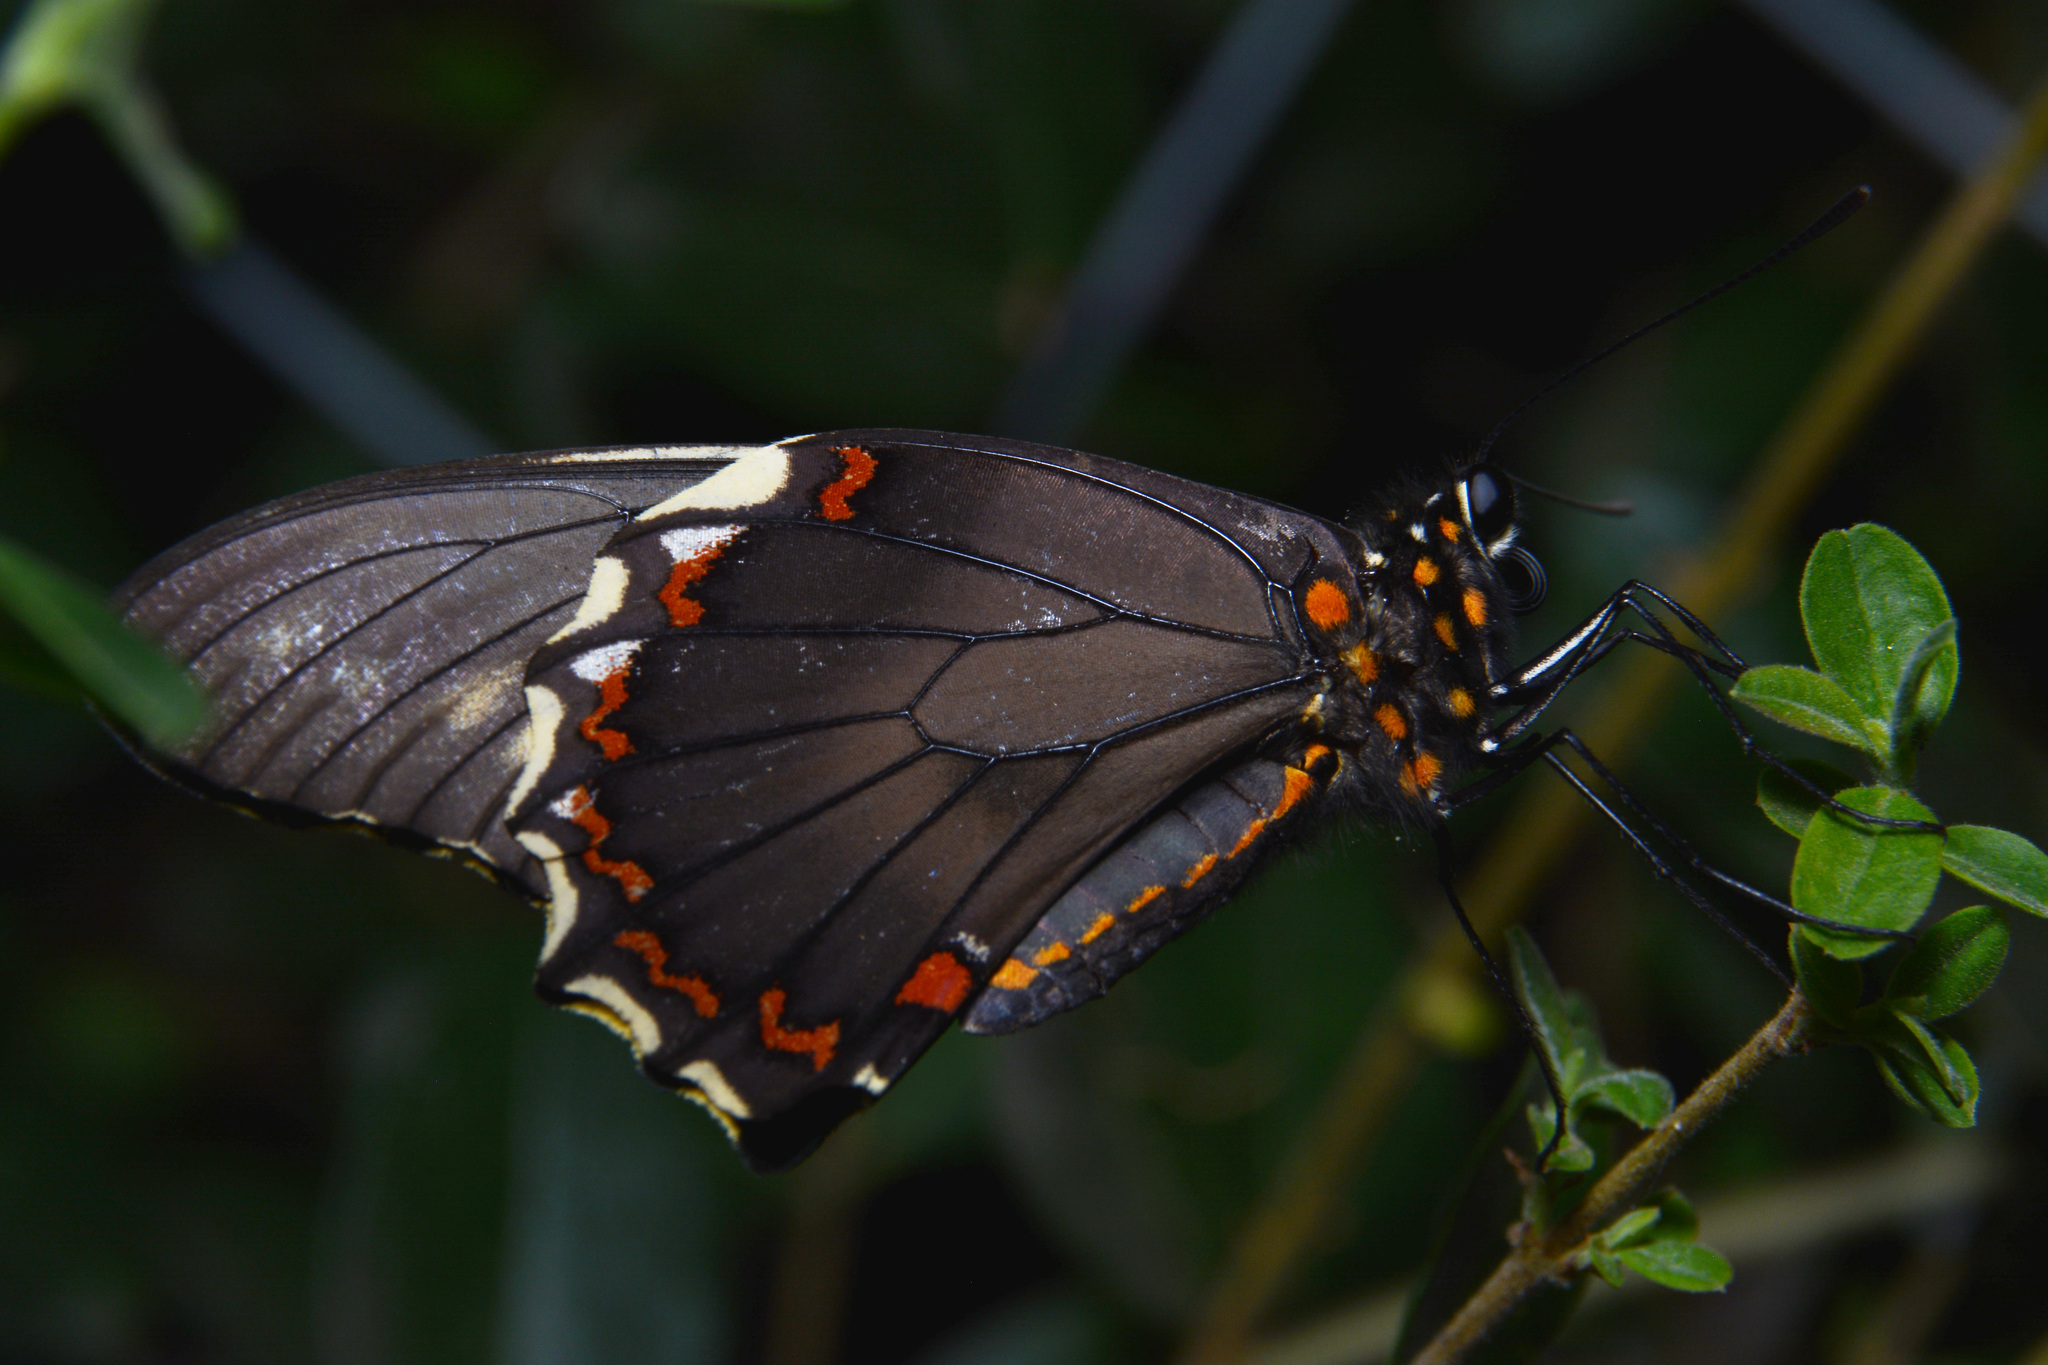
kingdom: Animalia
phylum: Arthropoda
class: Insecta
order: Lepidoptera
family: Papilionidae
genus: Battus
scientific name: Battus polydamas
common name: Polydamas swallowtail
